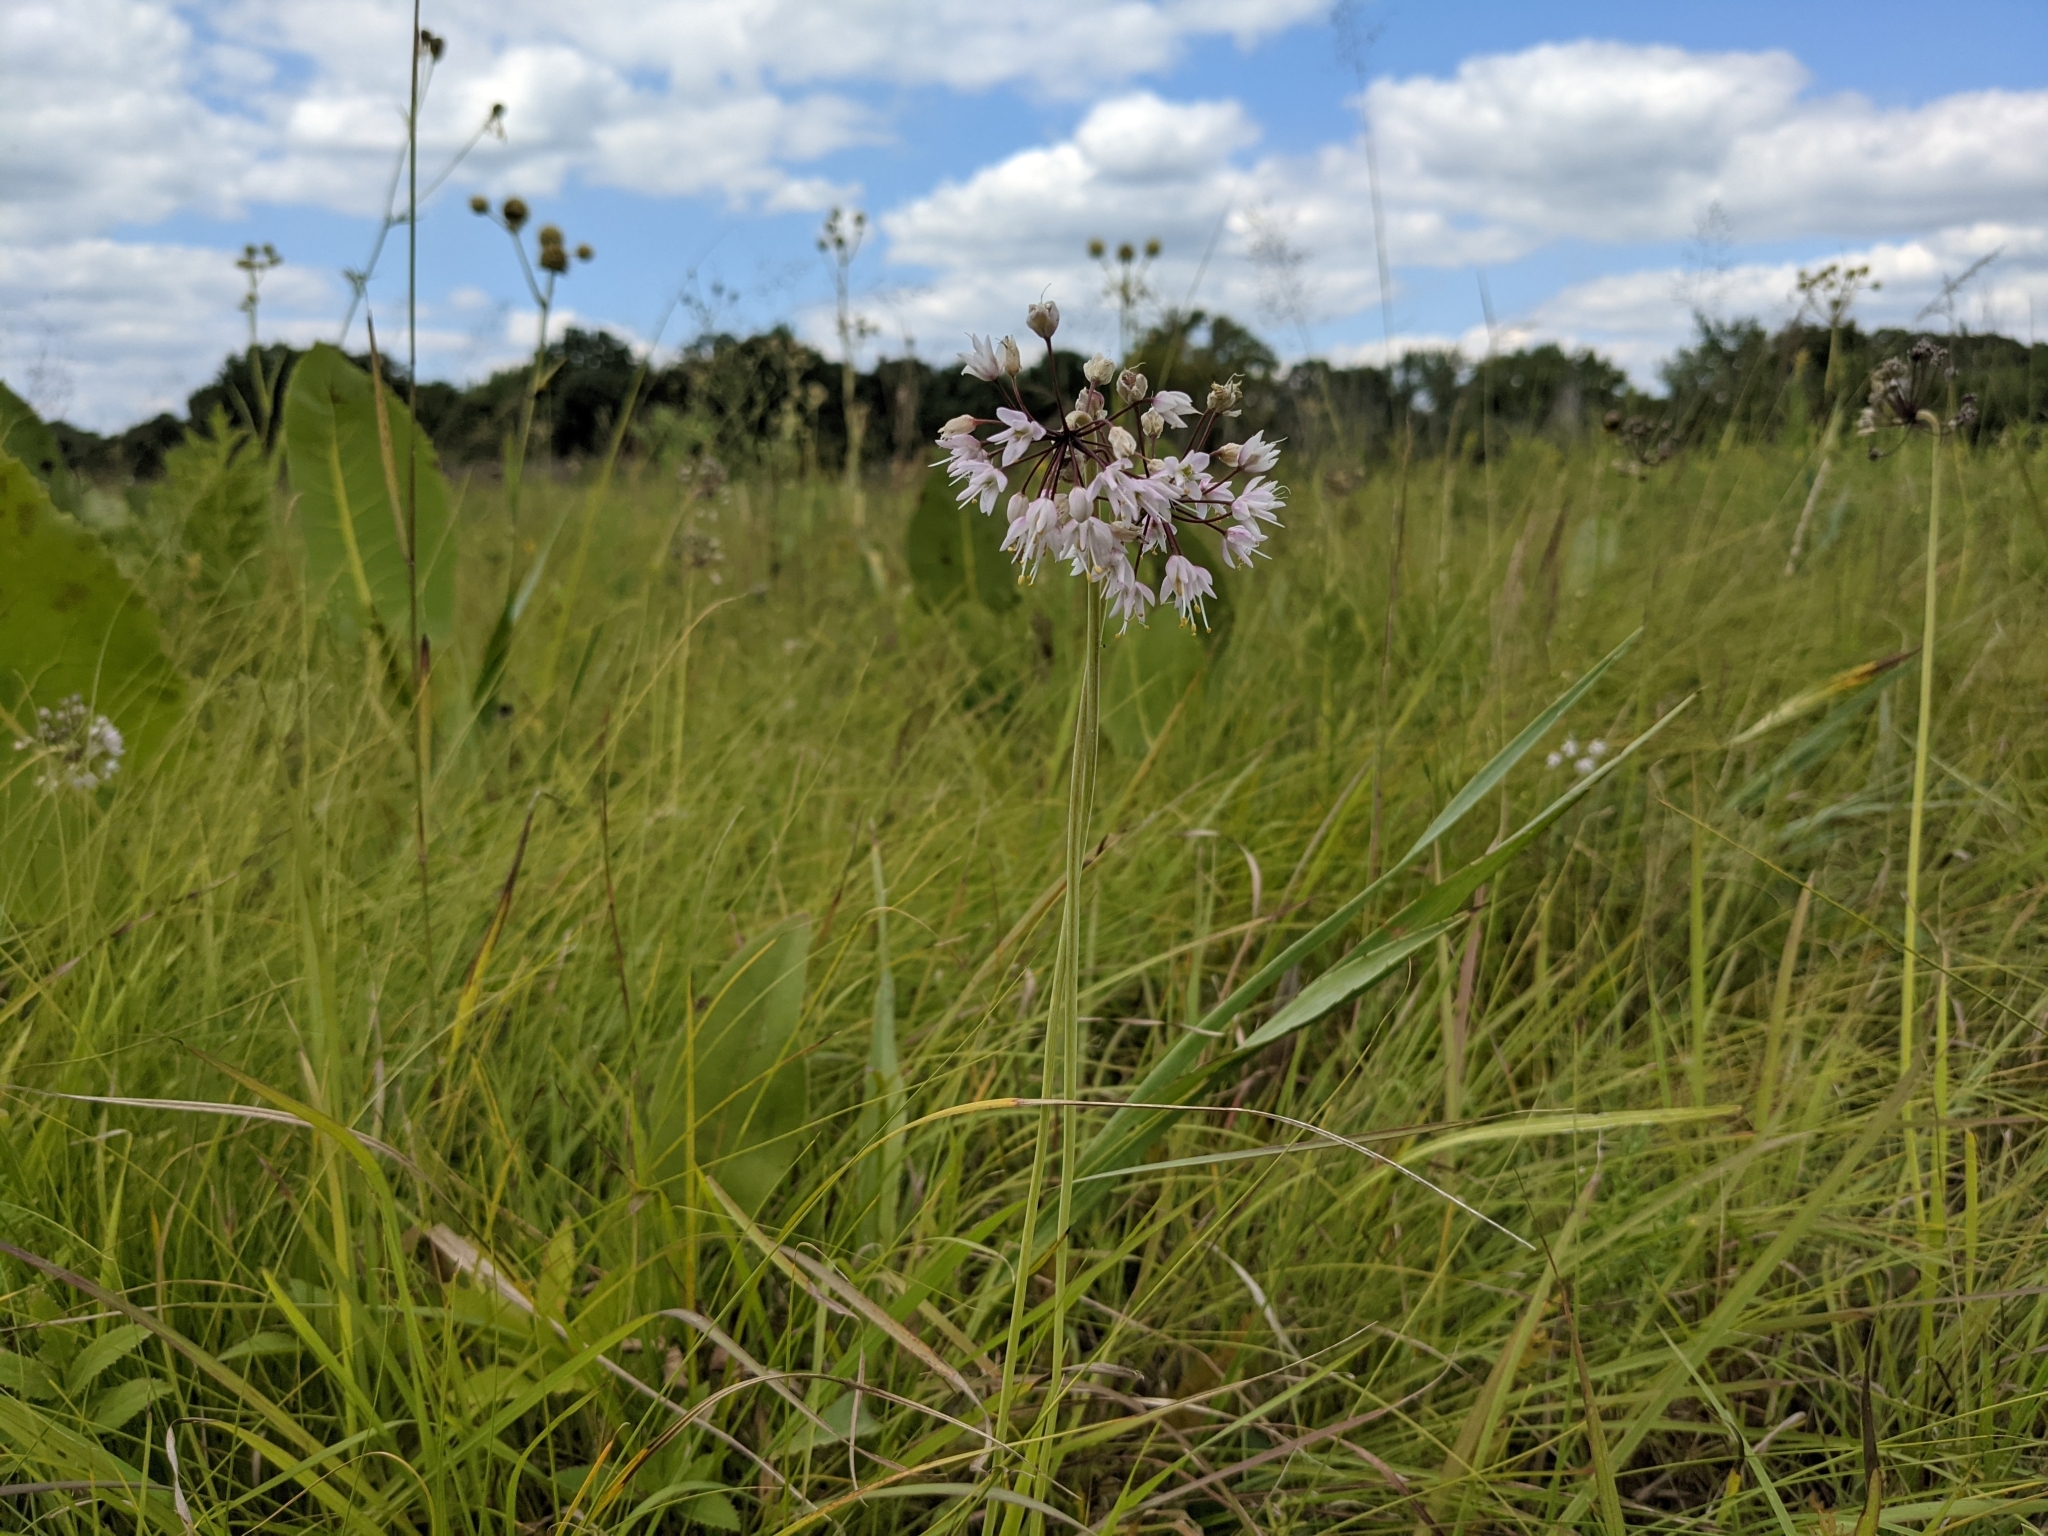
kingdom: Plantae
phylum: Tracheophyta
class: Liliopsida
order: Asparagales
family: Amaryllidaceae
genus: Allium
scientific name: Allium cernuum
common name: Nodding onion
